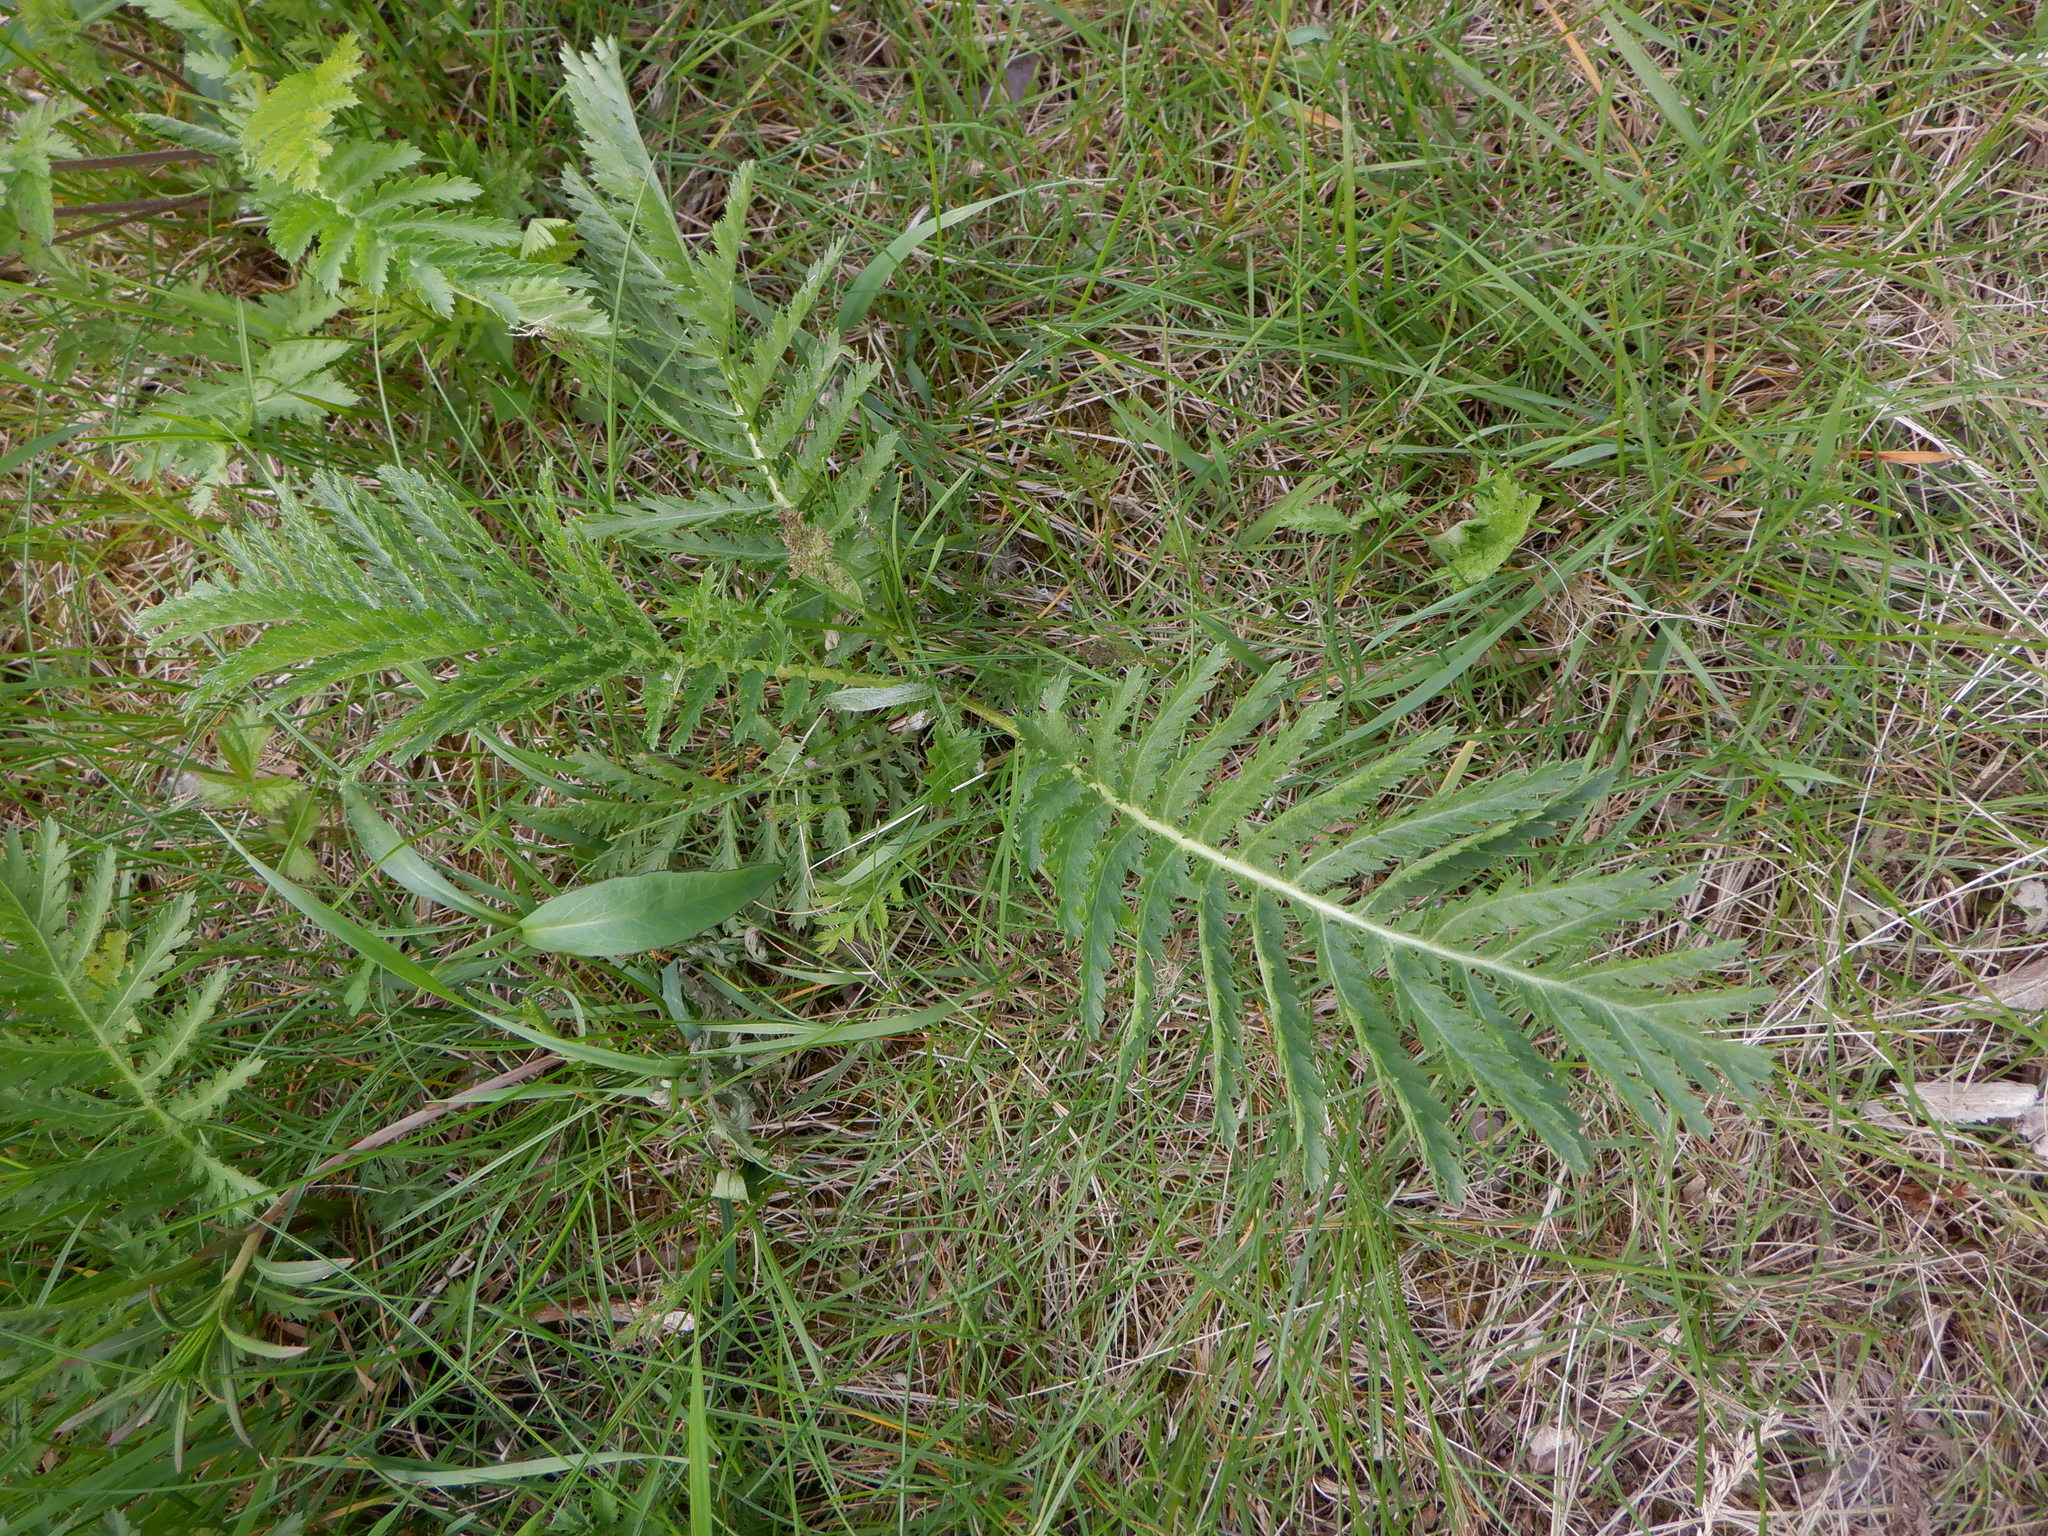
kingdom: Plantae
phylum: Tracheophyta
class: Magnoliopsida
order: Asterales
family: Asteraceae
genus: Tanacetum
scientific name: Tanacetum vulgare
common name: Common tansy
